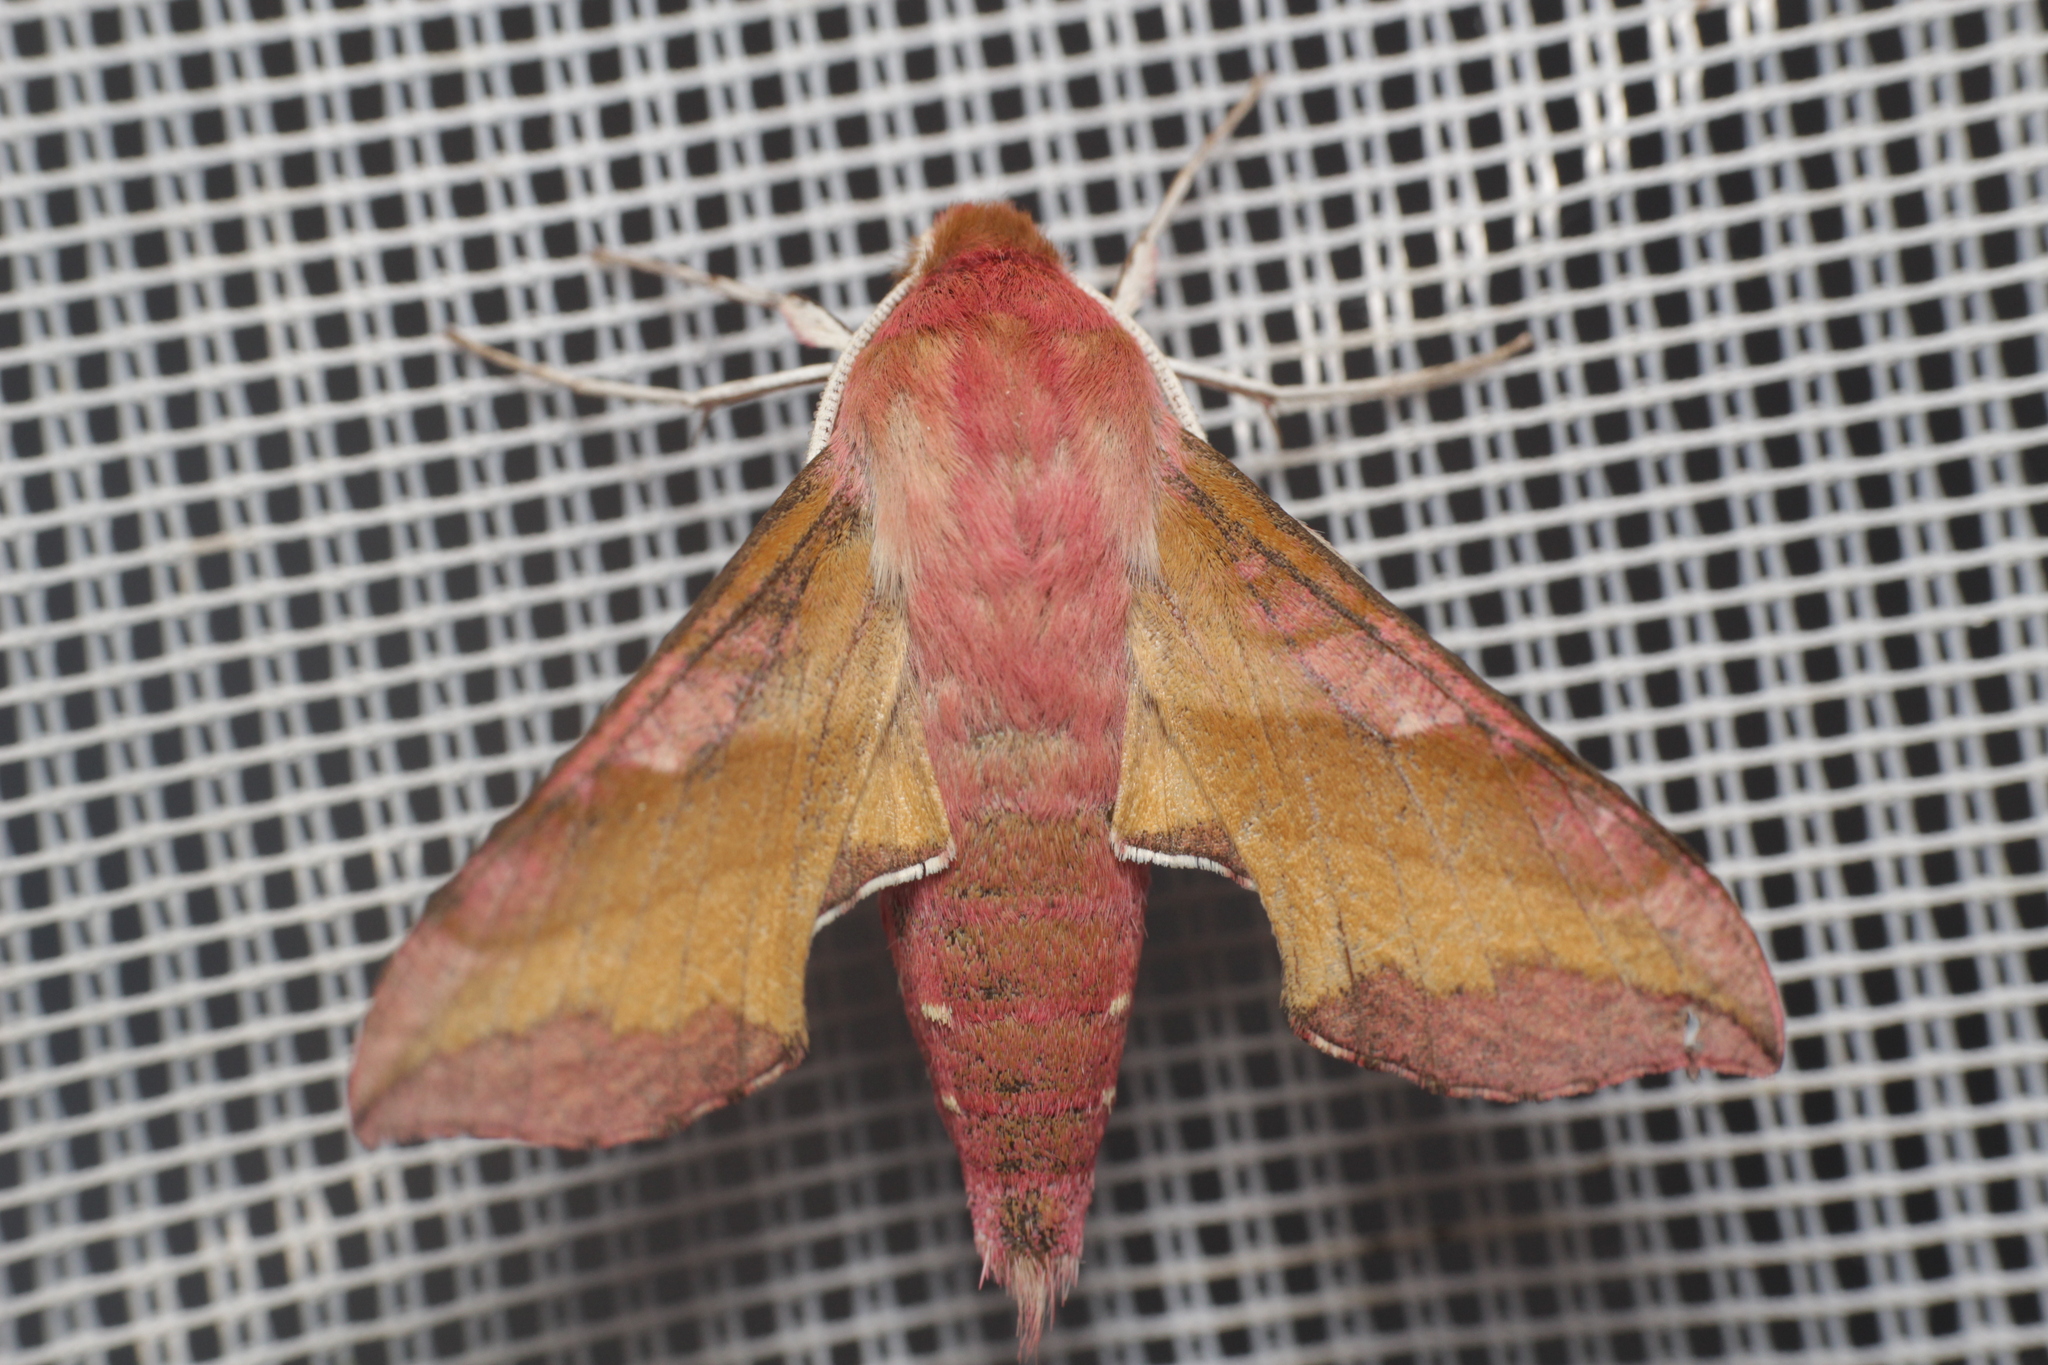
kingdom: Animalia
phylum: Arthropoda
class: Insecta
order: Lepidoptera
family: Sphingidae
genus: Deilephila
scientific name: Deilephila porcellus
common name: Small elephant hawk-moth
